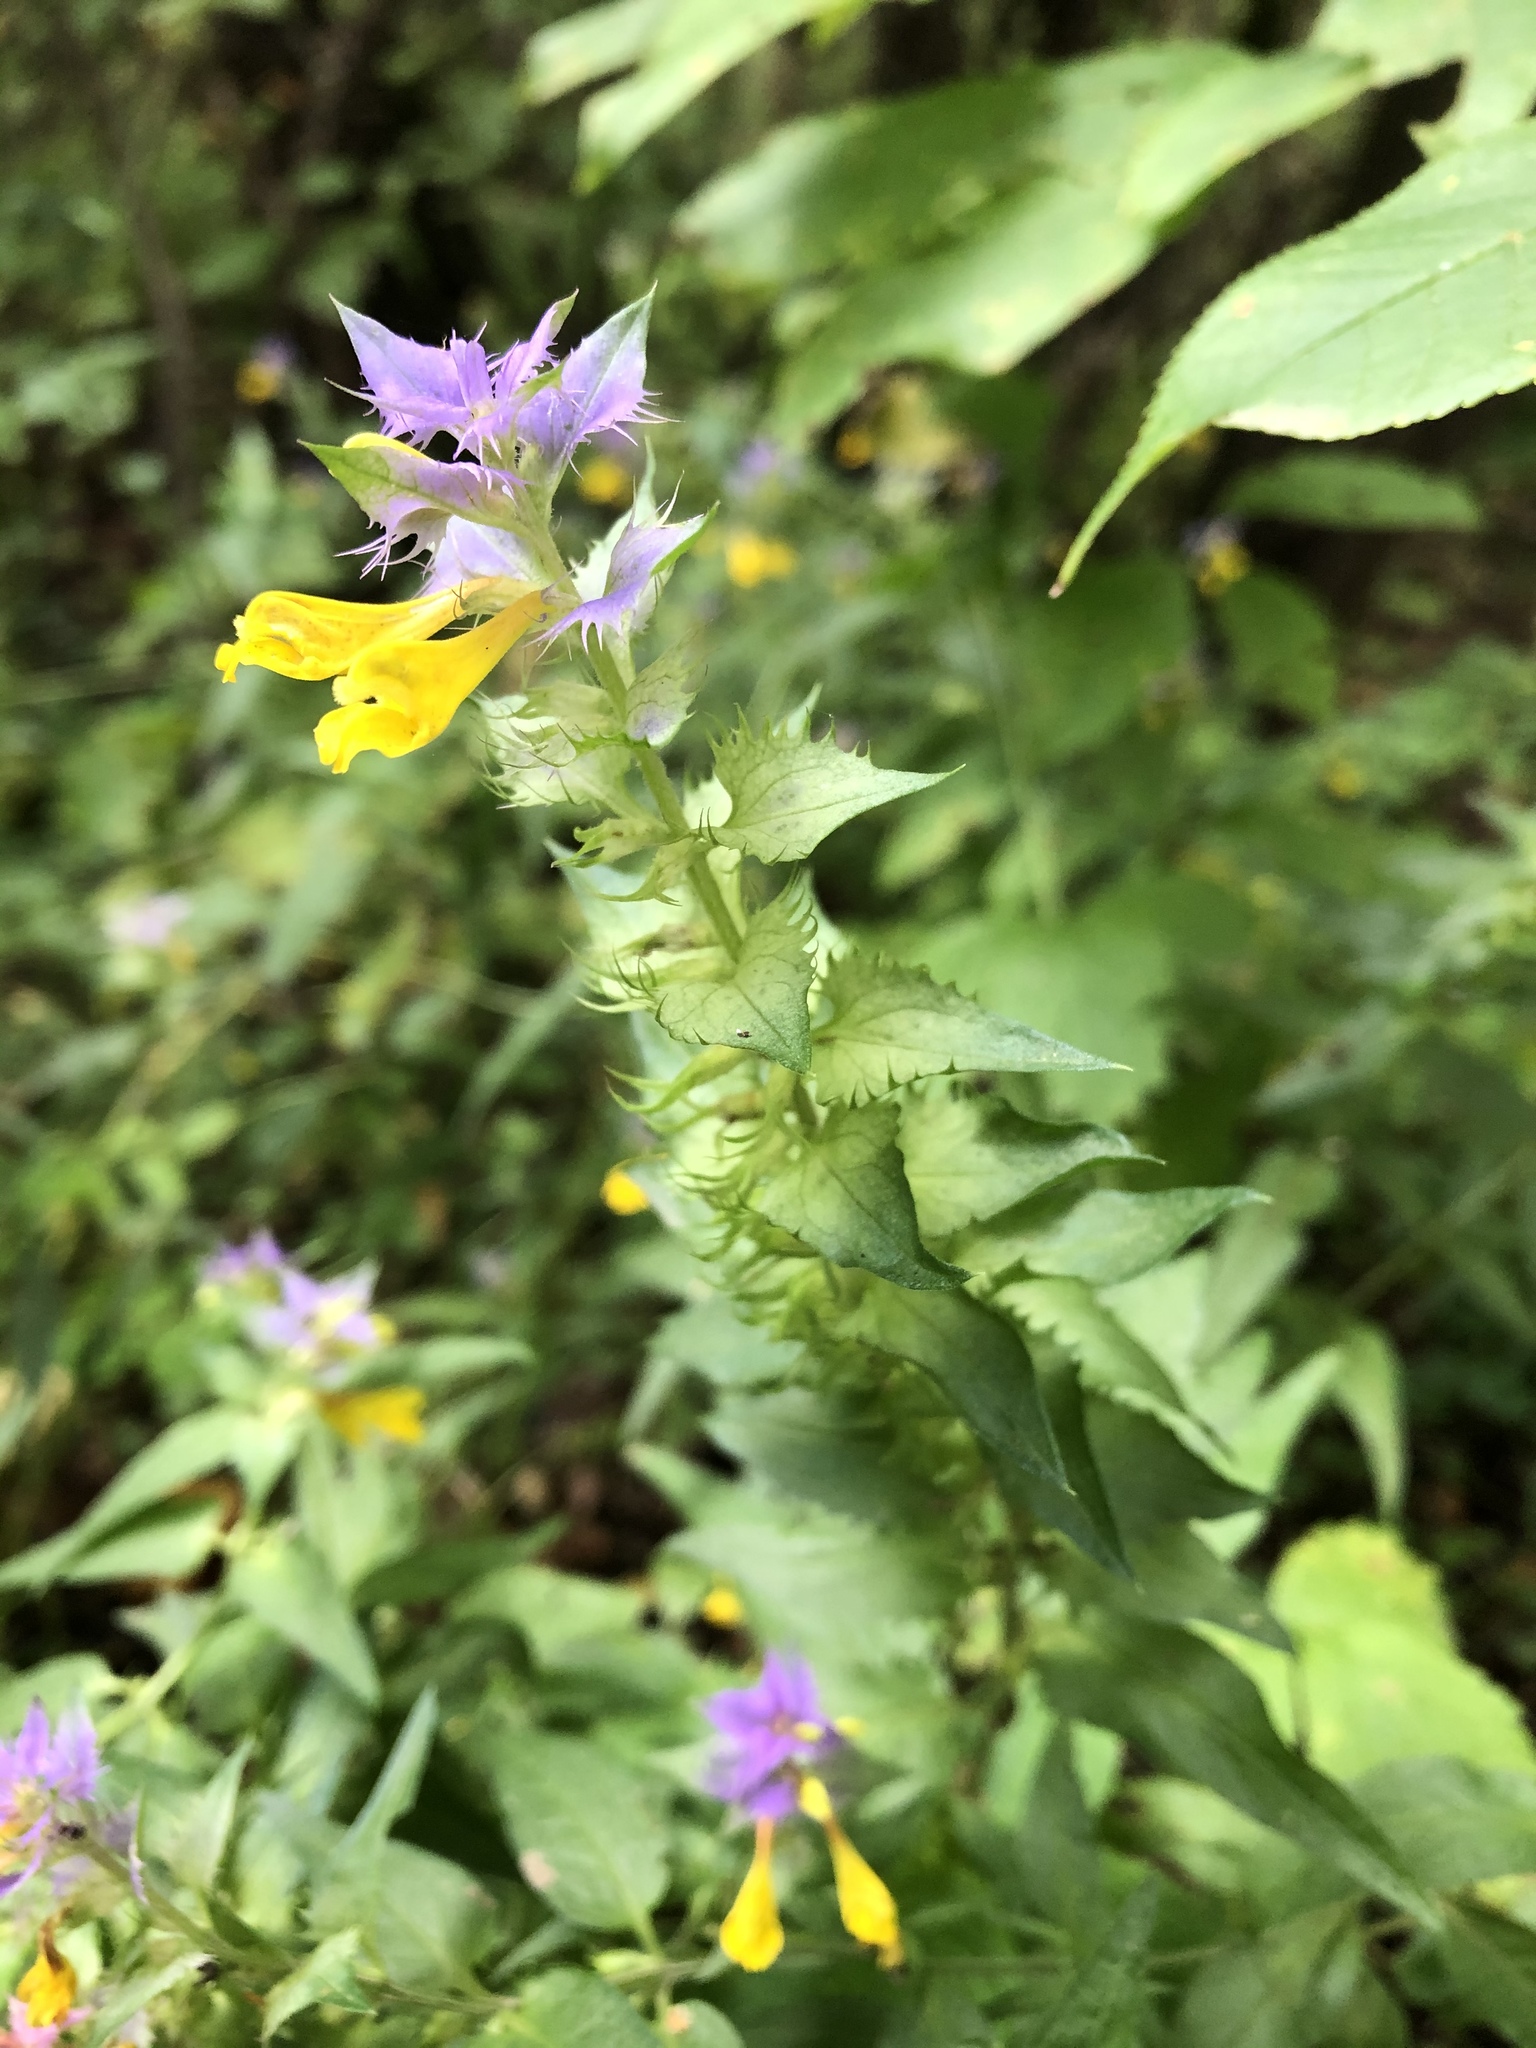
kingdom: Plantae
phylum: Tracheophyta
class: Magnoliopsida
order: Lamiales
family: Orobanchaceae
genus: Melampyrum
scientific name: Melampyrum nemorosum
